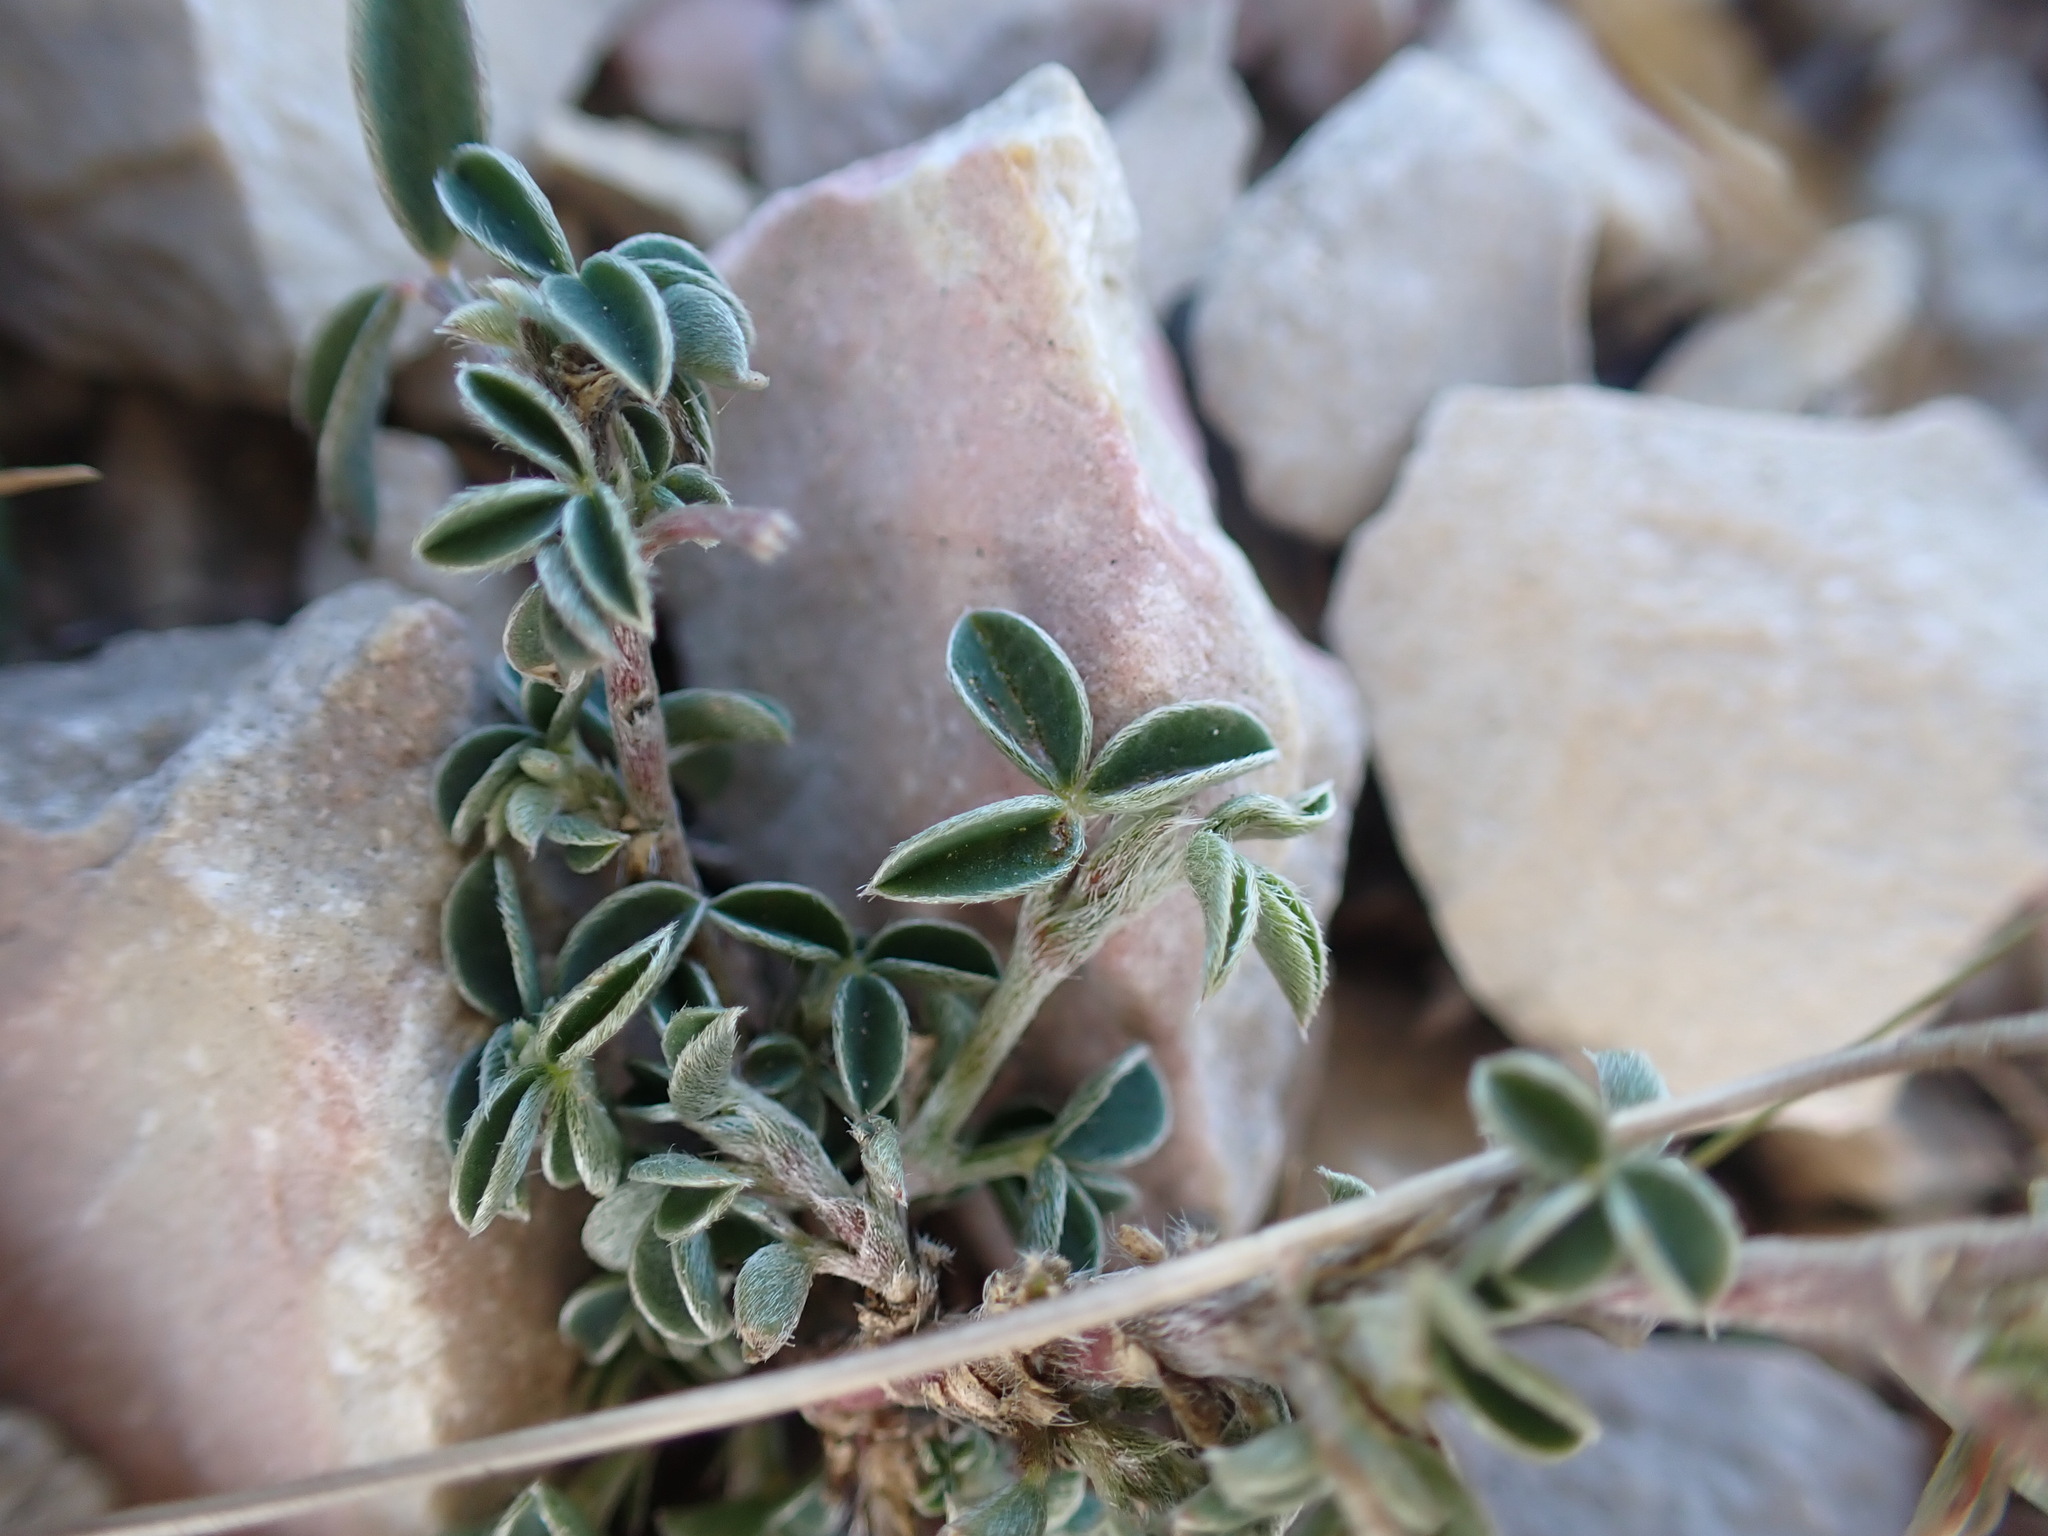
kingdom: Plantae
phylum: Tracheophyta
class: Magnoliopsida
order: Fabales
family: Fabaceae
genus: Argyrolobium
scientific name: Argyrolobium zanonii
